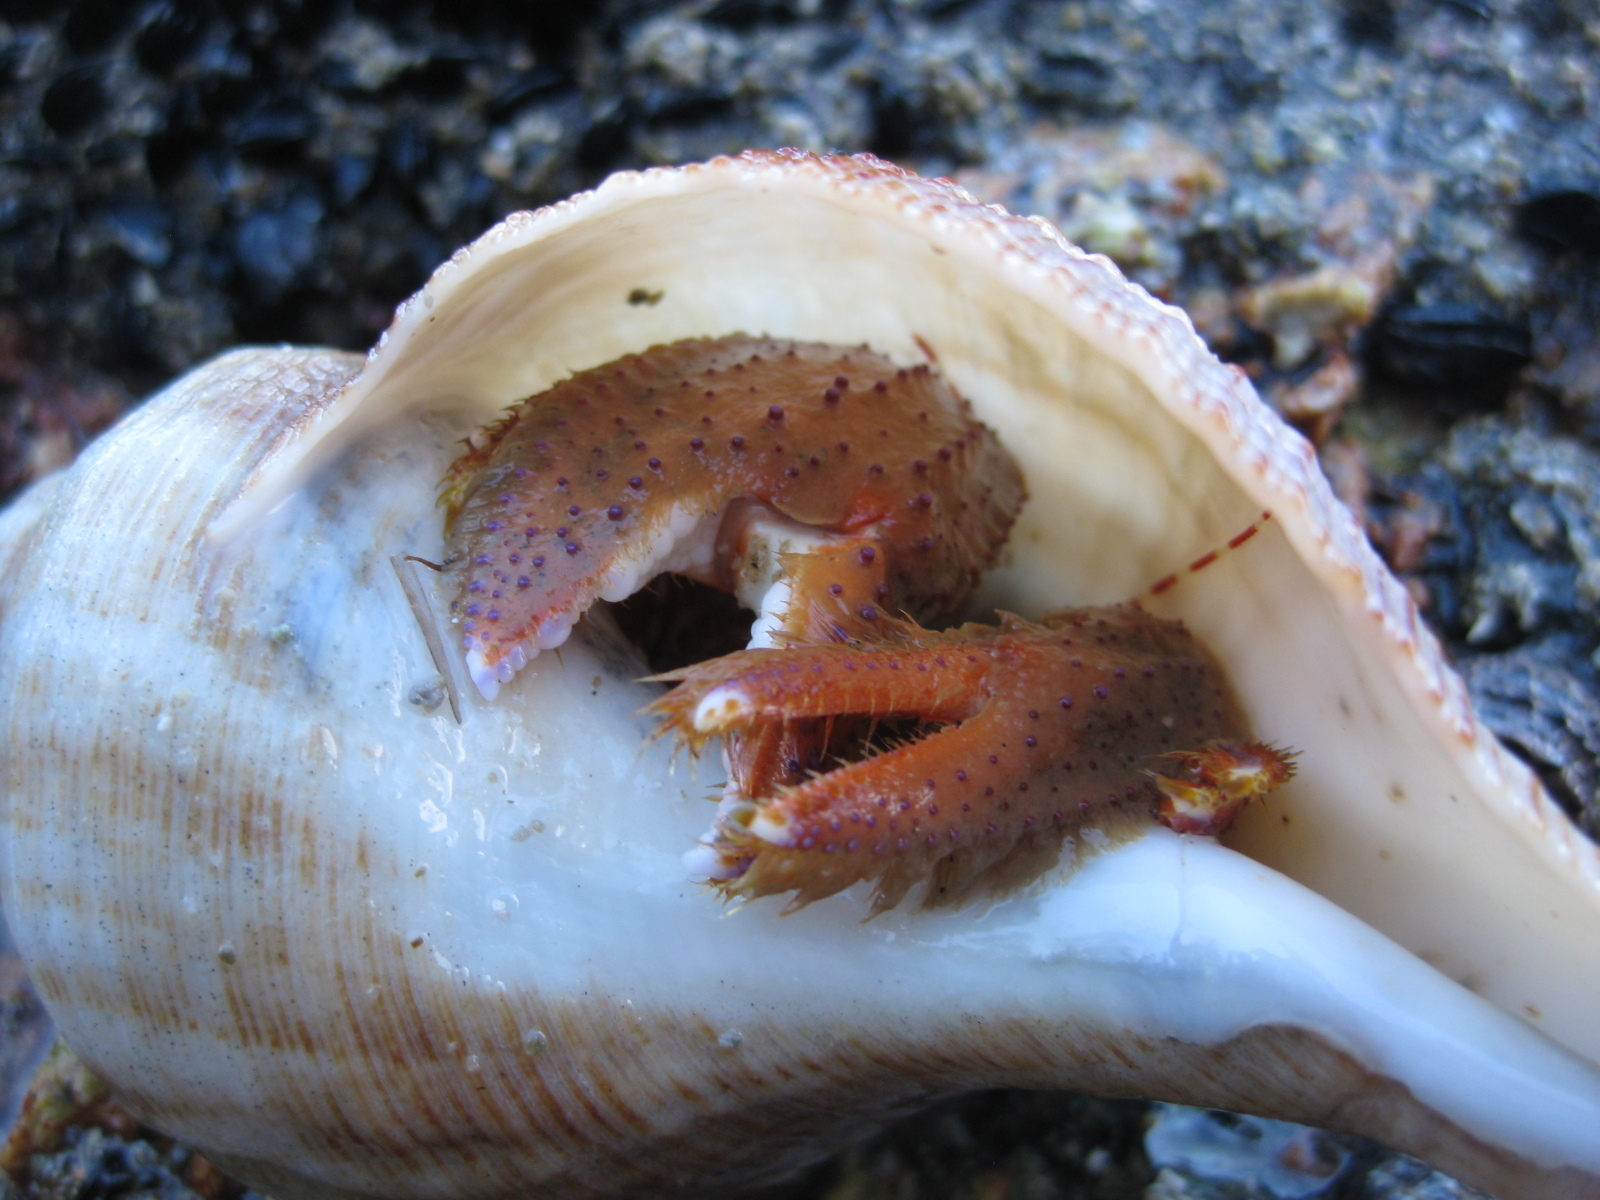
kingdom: Animalia
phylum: Mollusca
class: Gastropoda
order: Neogastropoda
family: Austrosiphonidae
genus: Penion
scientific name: Penion sulcatus
